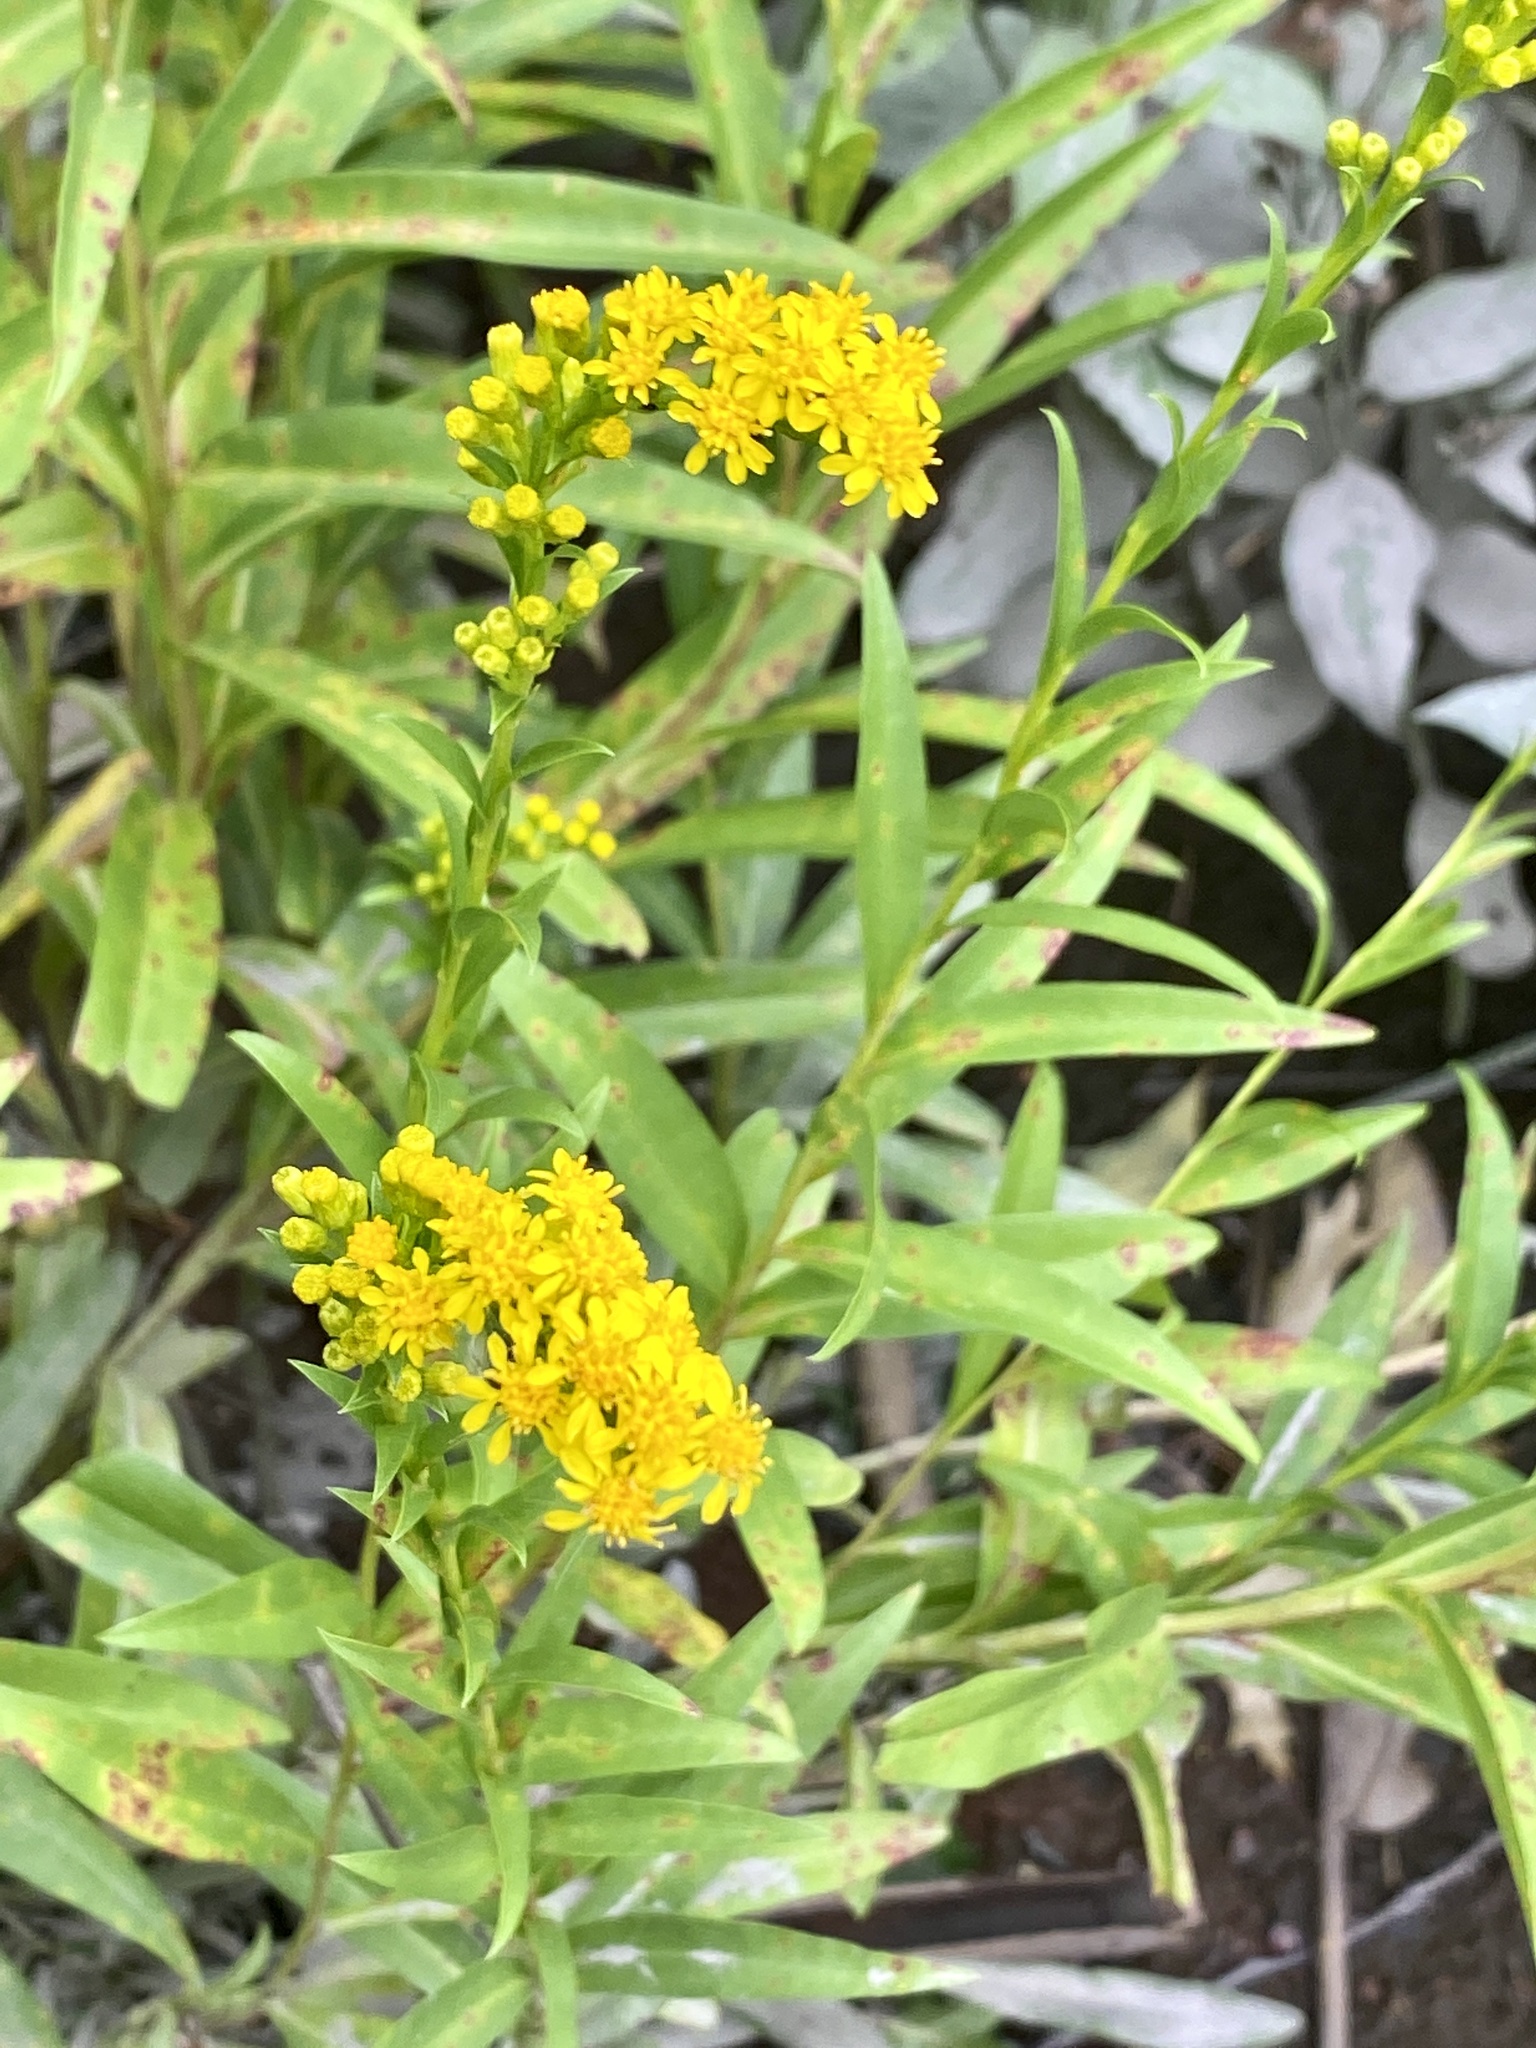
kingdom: Plantae
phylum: Tracheophyta
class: Magnoliopsida
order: Asterales
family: Asteraceae
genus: Solidago
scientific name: Solidago sempervirens
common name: Salt-marsh goldenrod
